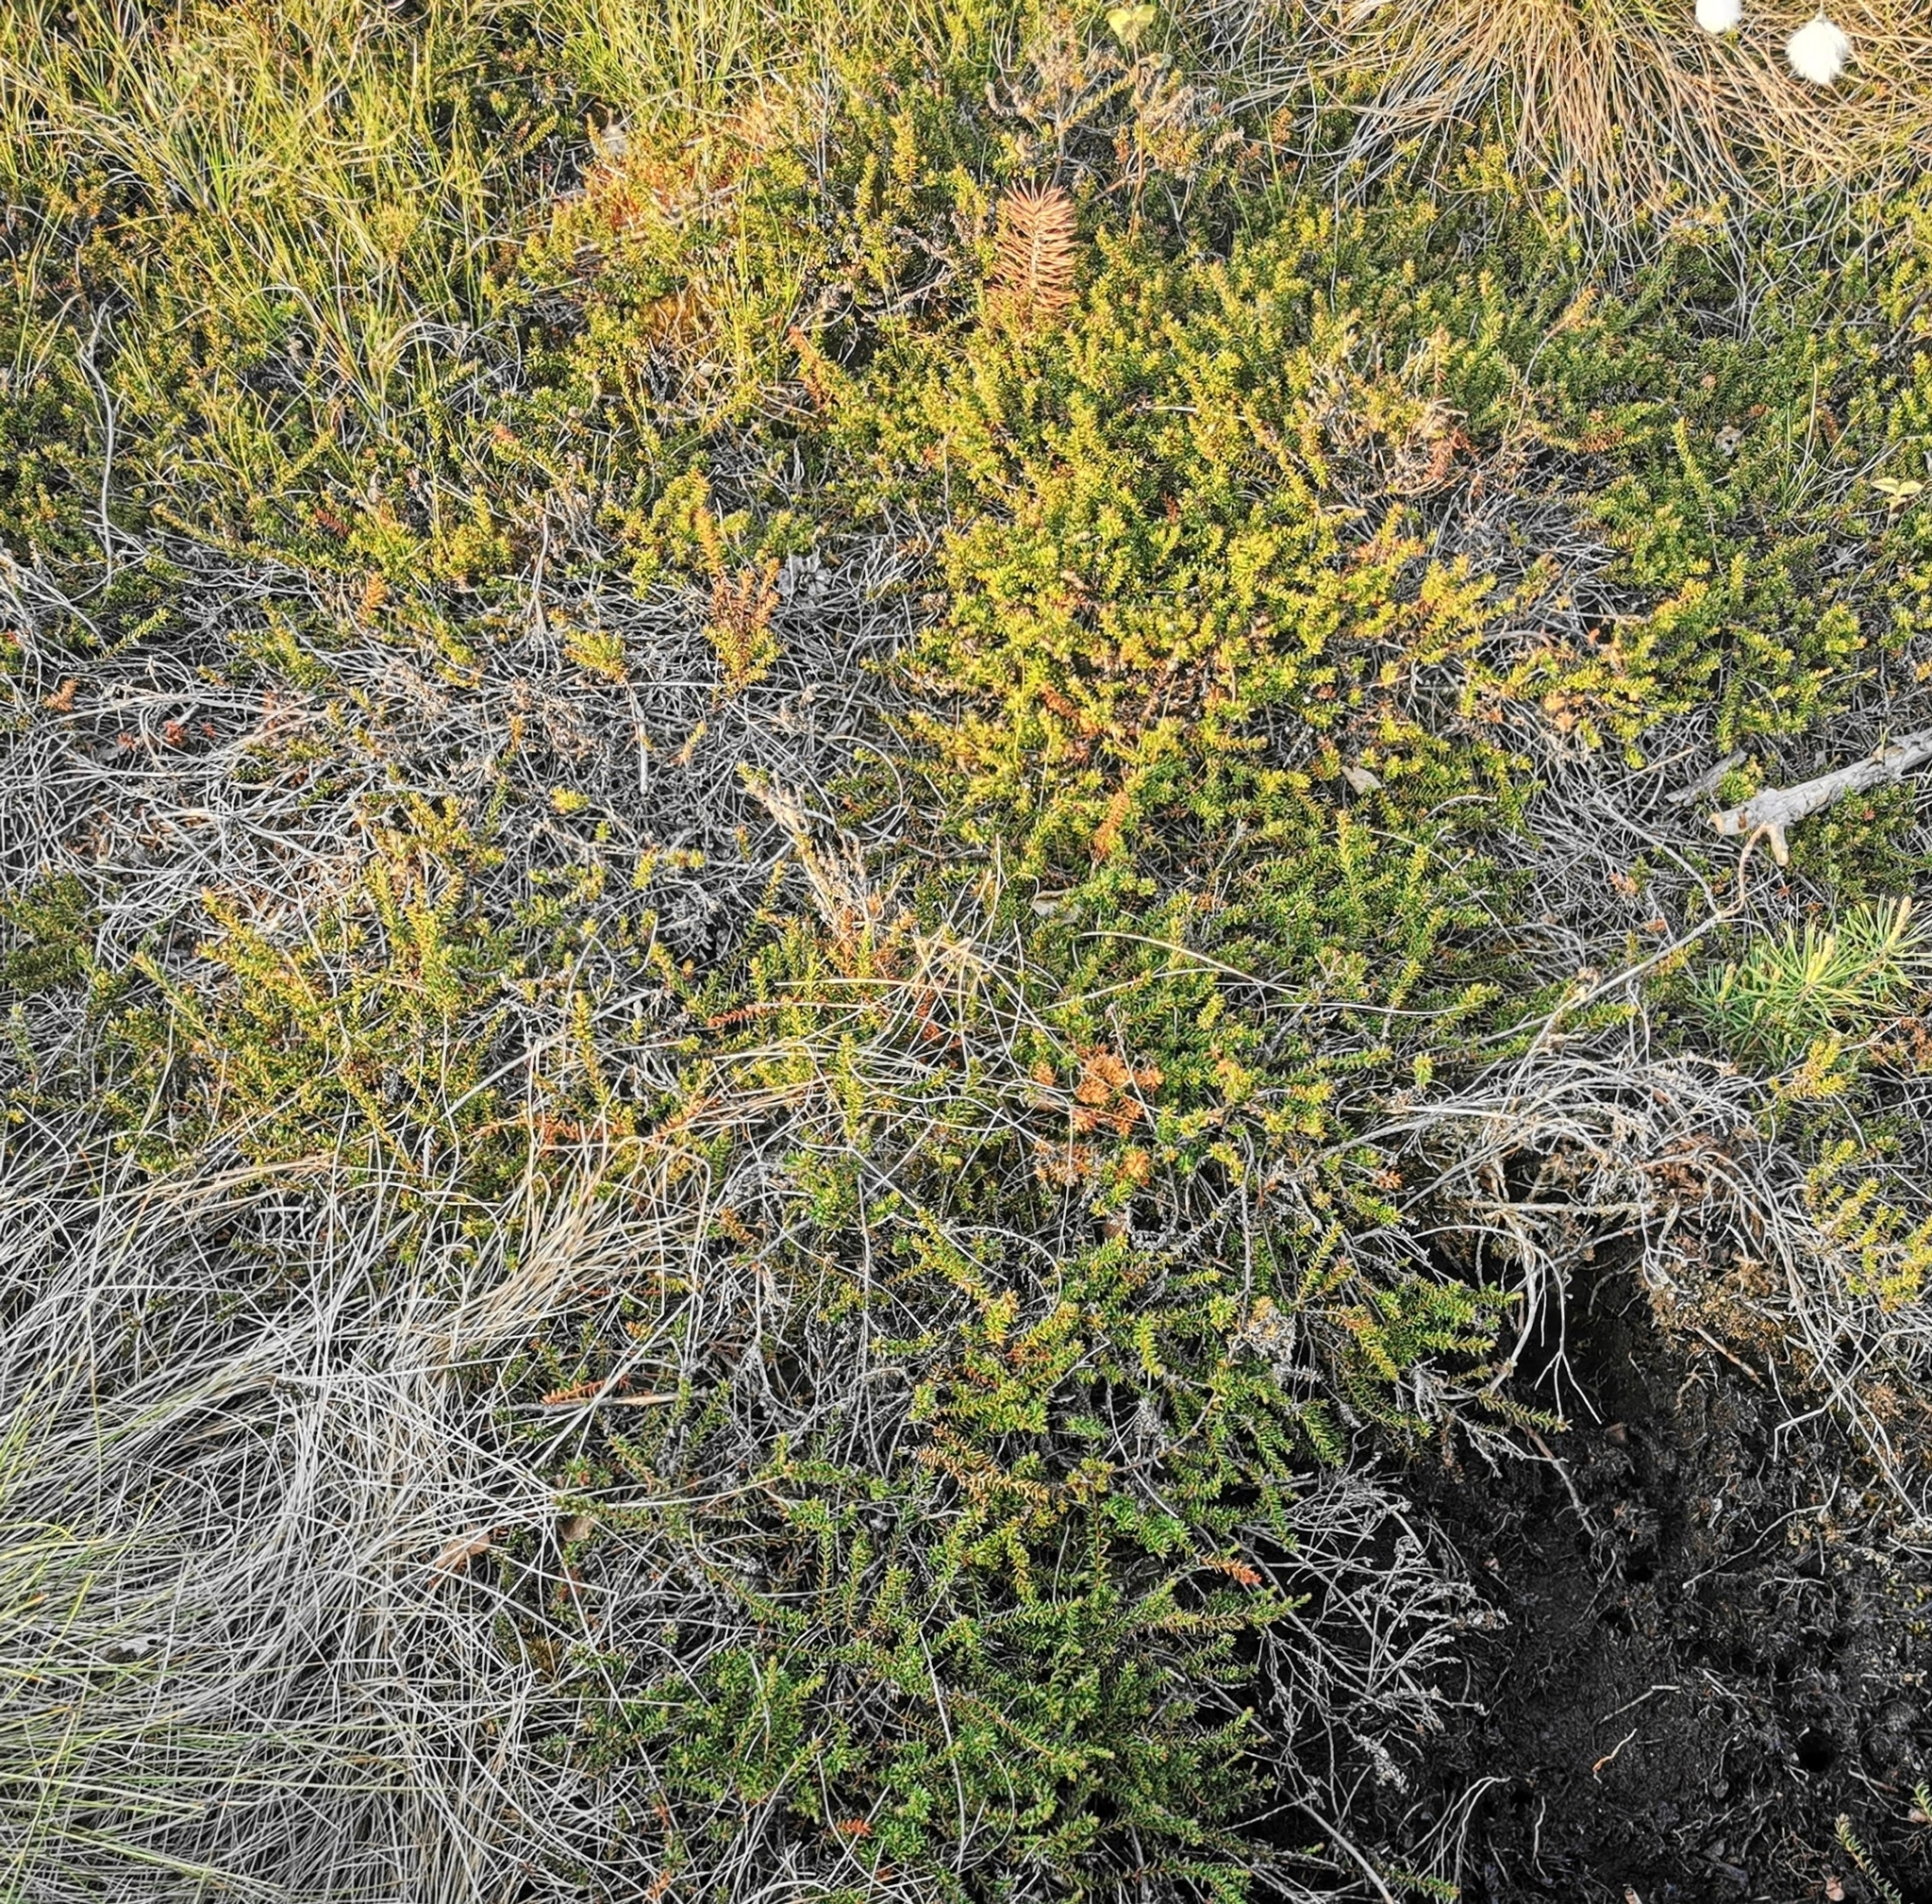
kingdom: Plantae
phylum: Tracheophyta
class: Magnoliopsida
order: Ericales
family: Ericaceae
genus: Empetrum
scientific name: Empetrum nigrum
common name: Black crowberry
